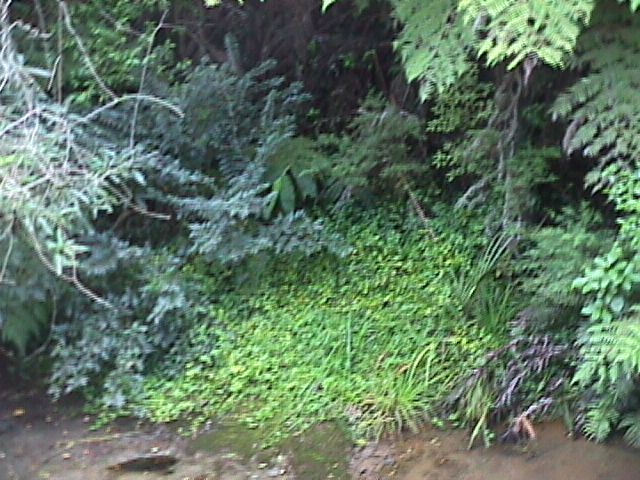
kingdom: Plantae
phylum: Tracheophyta
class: Magnoliopsida
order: Lamiales
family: Oleaceae
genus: Ligustrum
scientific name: Ligustrum lucidum
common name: Glossy privet
